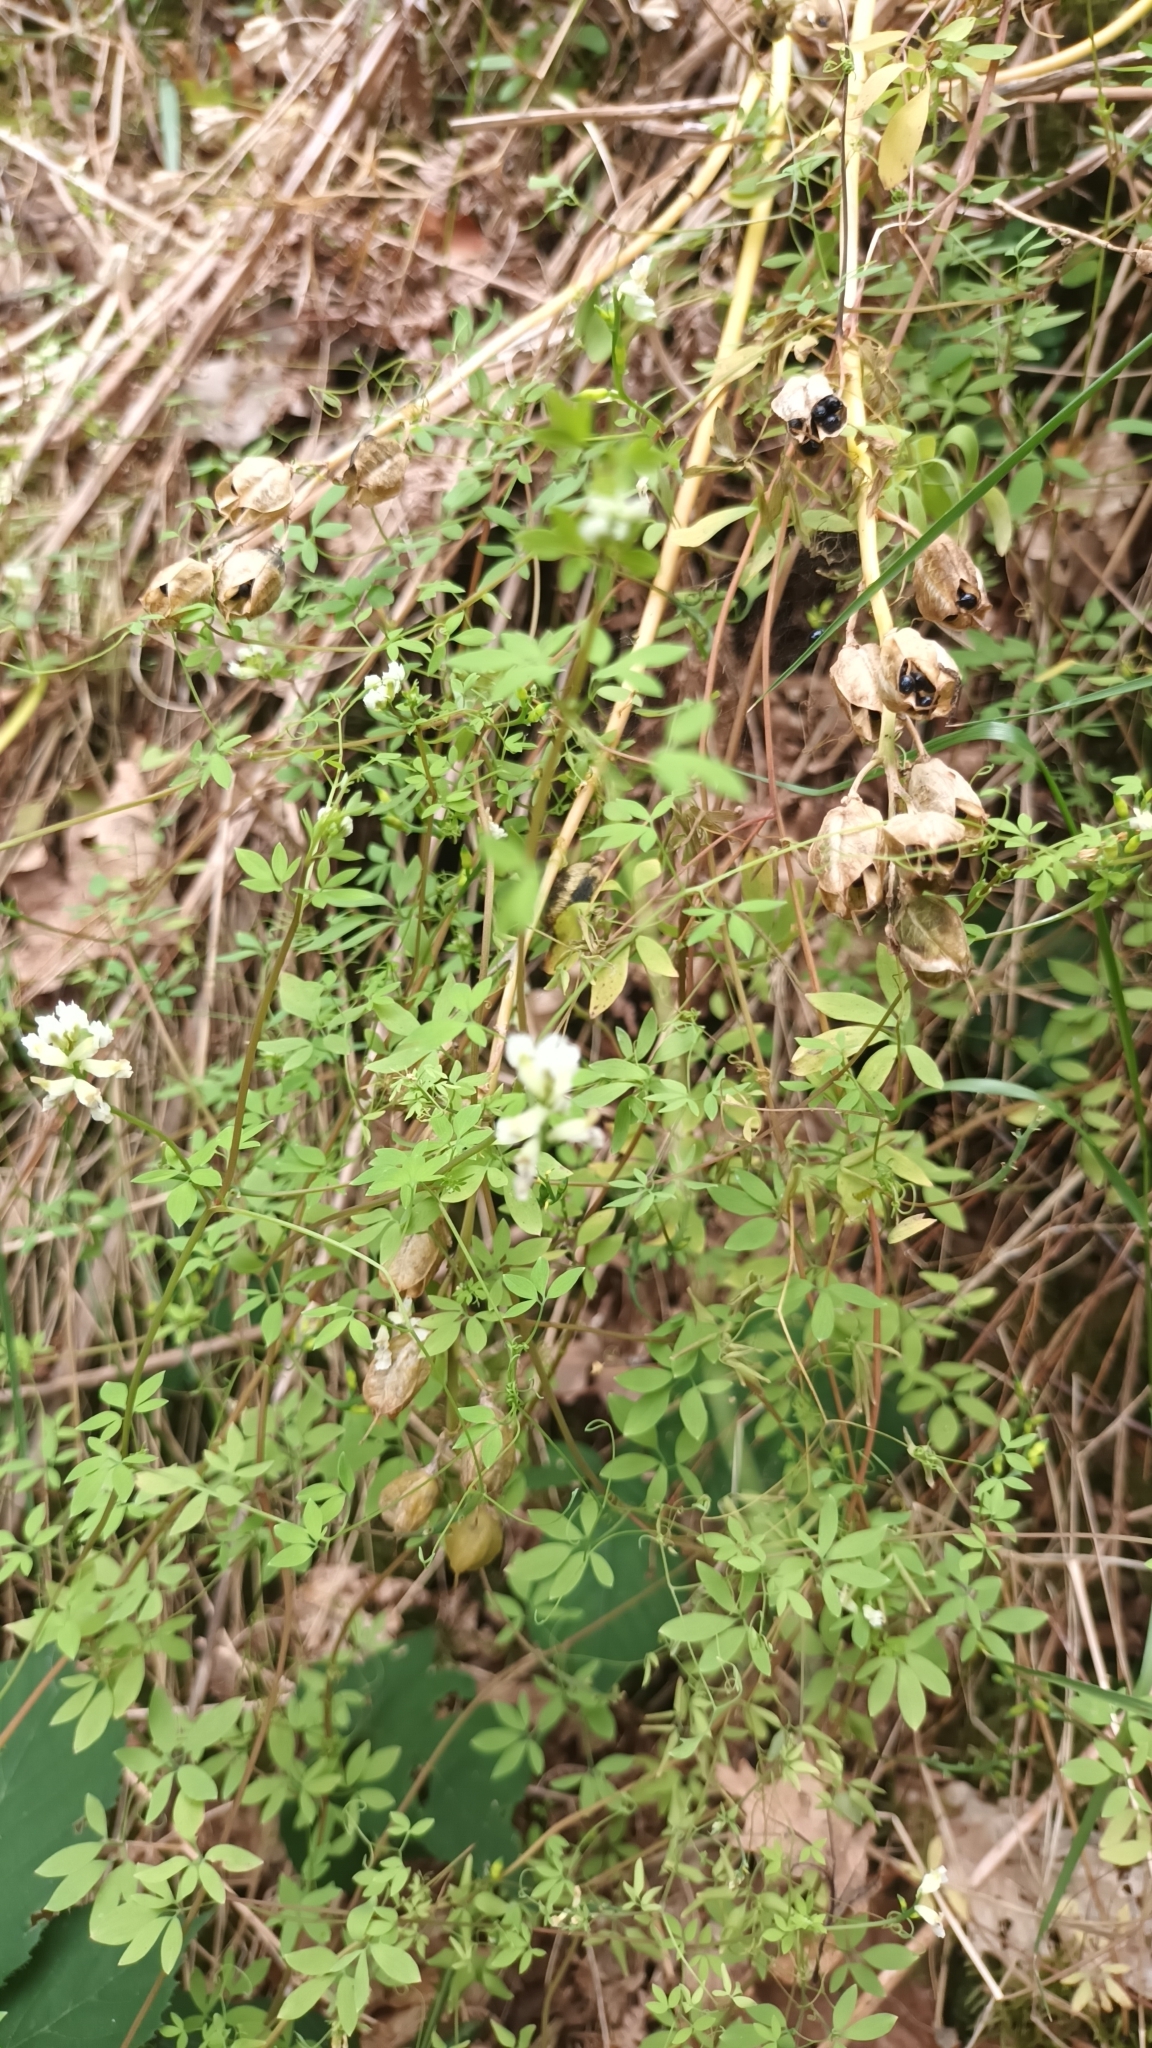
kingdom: Plantae
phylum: Tracheophyta
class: Magnoliopsida
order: Ranunculales
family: Papaveraceae
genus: Ceratocapnos
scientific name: Ceratocapnos claviculata
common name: Climbing corydalis
